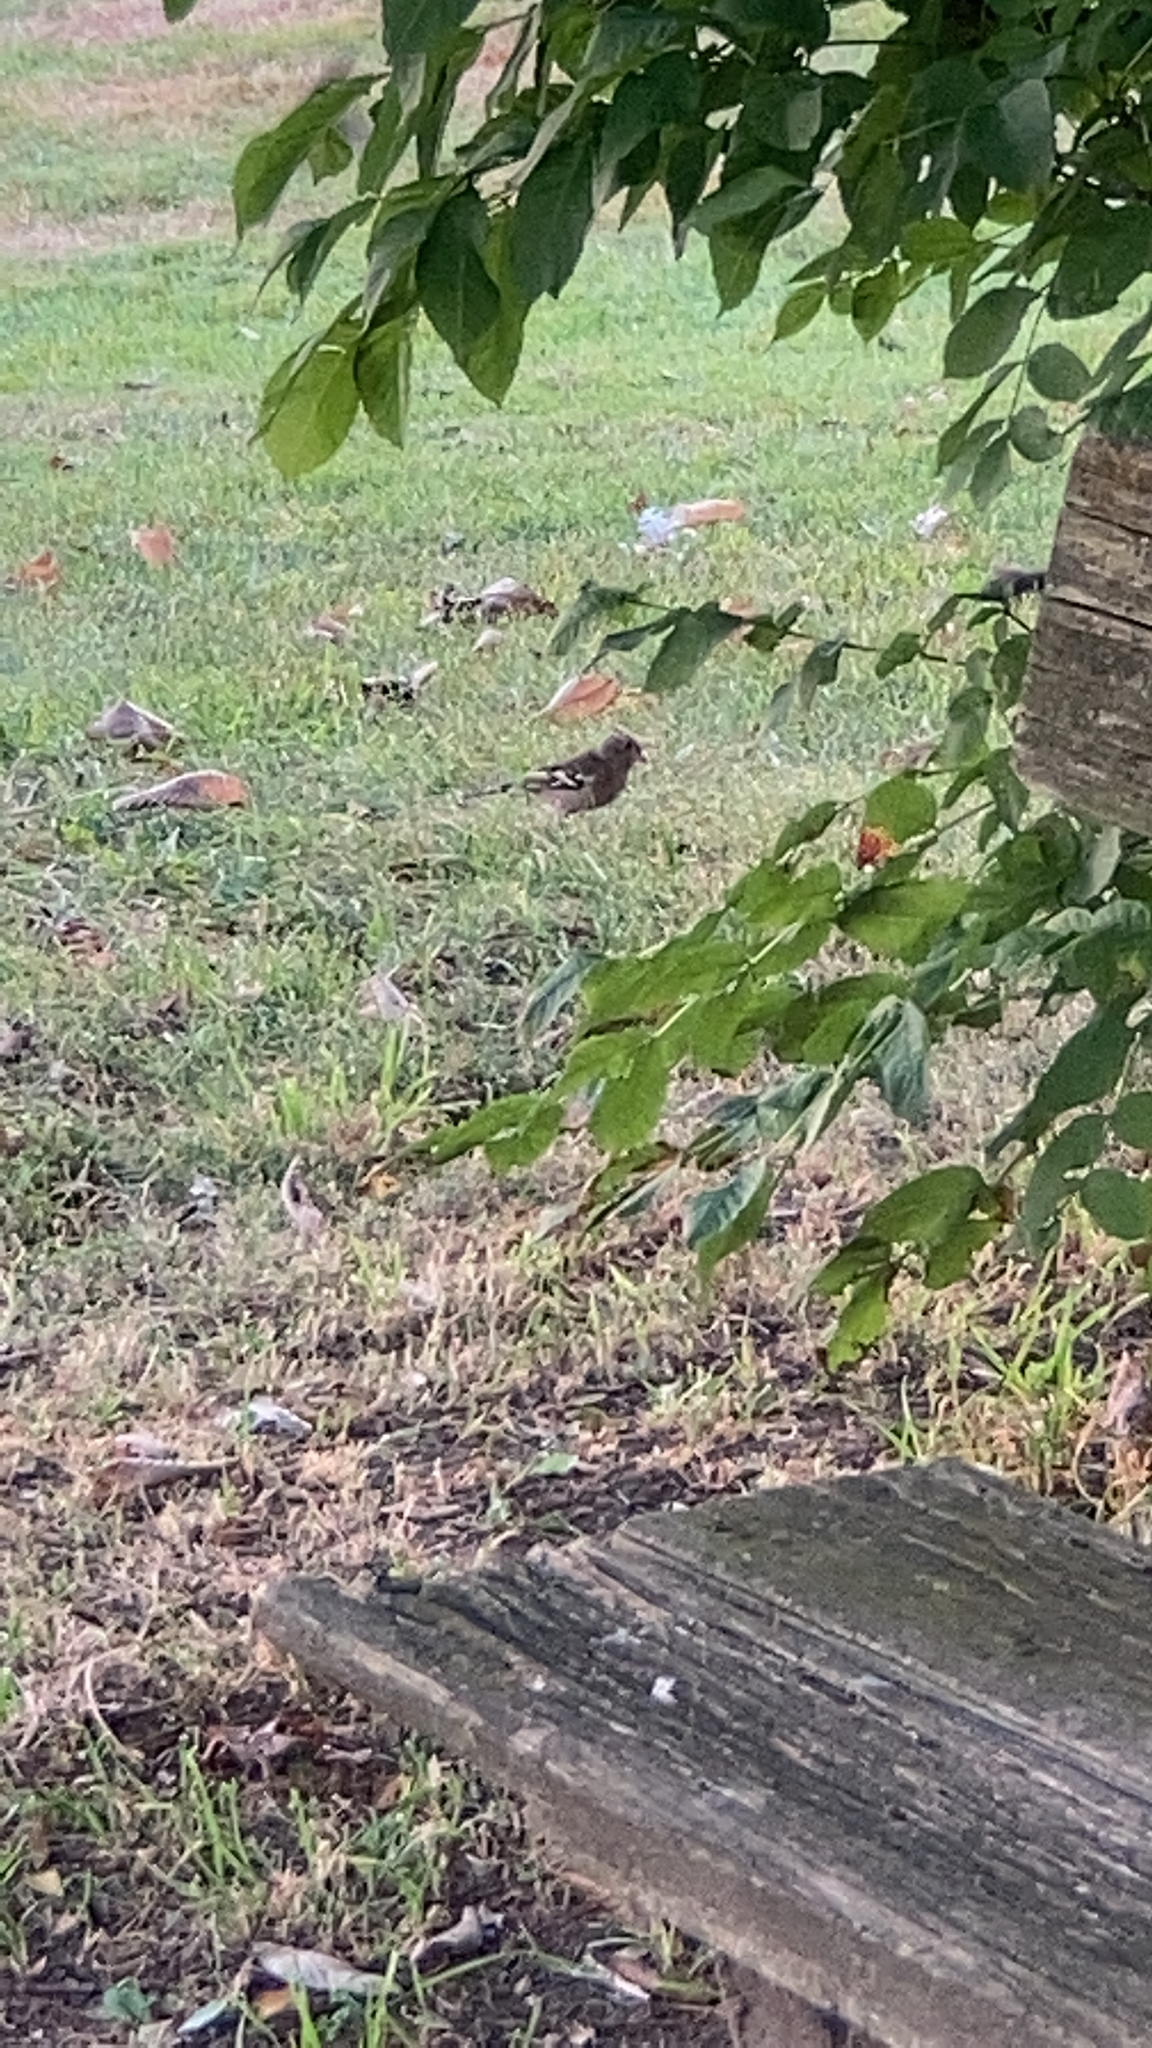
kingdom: Animalia
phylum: Chordata
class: Aves
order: Passeriformes
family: Fringillidae
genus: Fringilla
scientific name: Fringilla coelebs
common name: Common chaffinch
